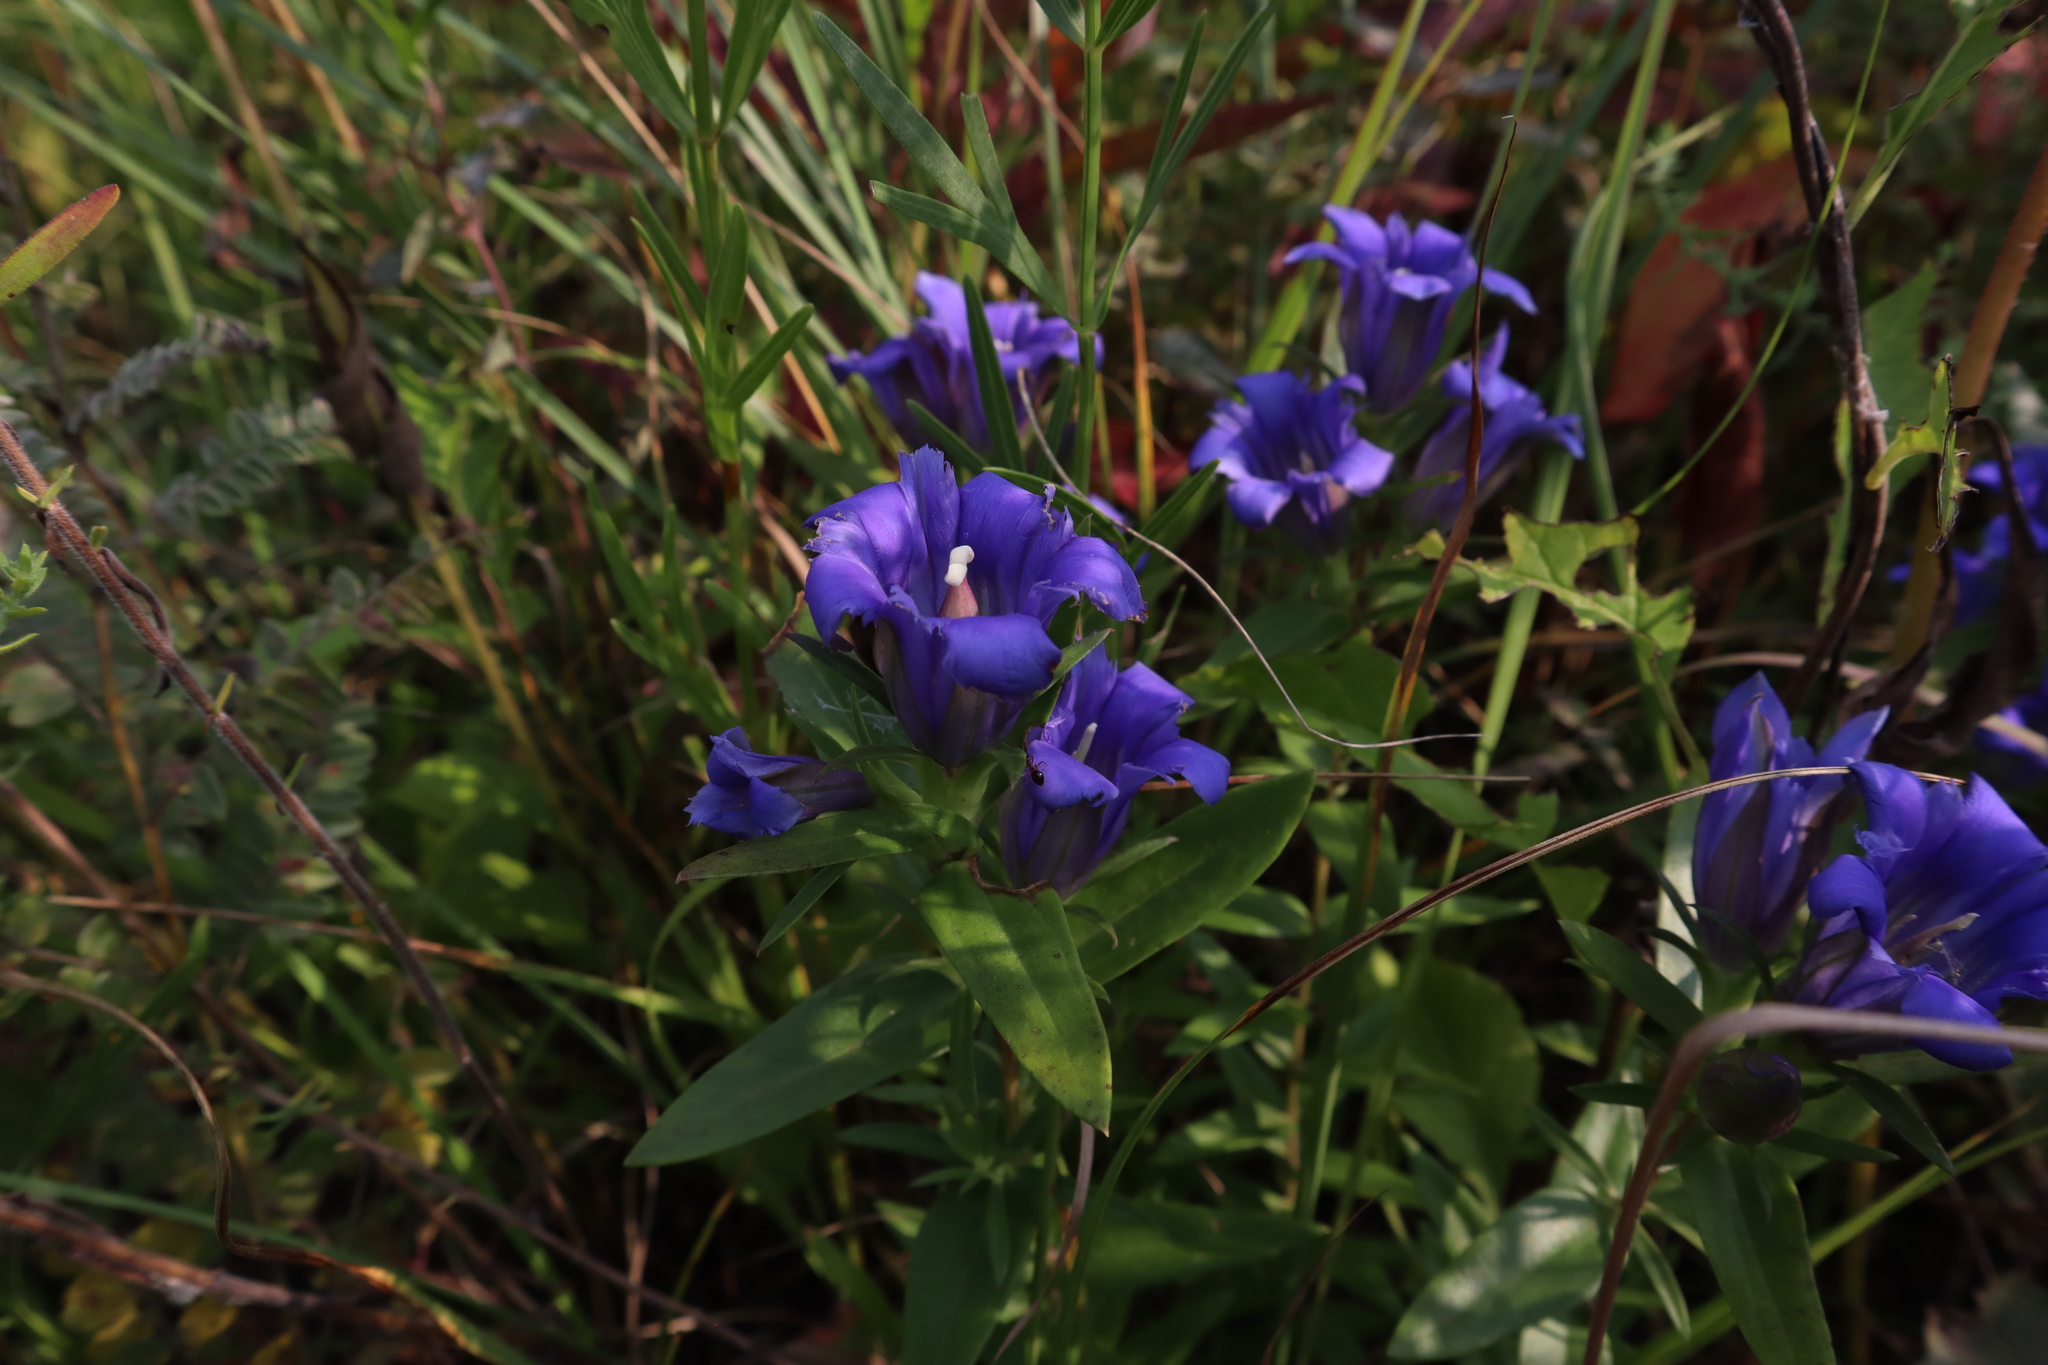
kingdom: Plantae
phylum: Tracheophyta
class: Magnoliopsida
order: Gentianales
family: Gentianaceae
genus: Gentiana
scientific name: Gentiana puberulenta
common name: Downy gentian
